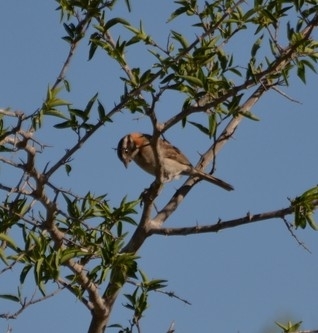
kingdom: Animalia
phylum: Chordata
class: Aves
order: Passeriformes
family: Passerellidae
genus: Zonotrichia
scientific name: Zonotrichia capensis
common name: Rufous-collared sparrow
